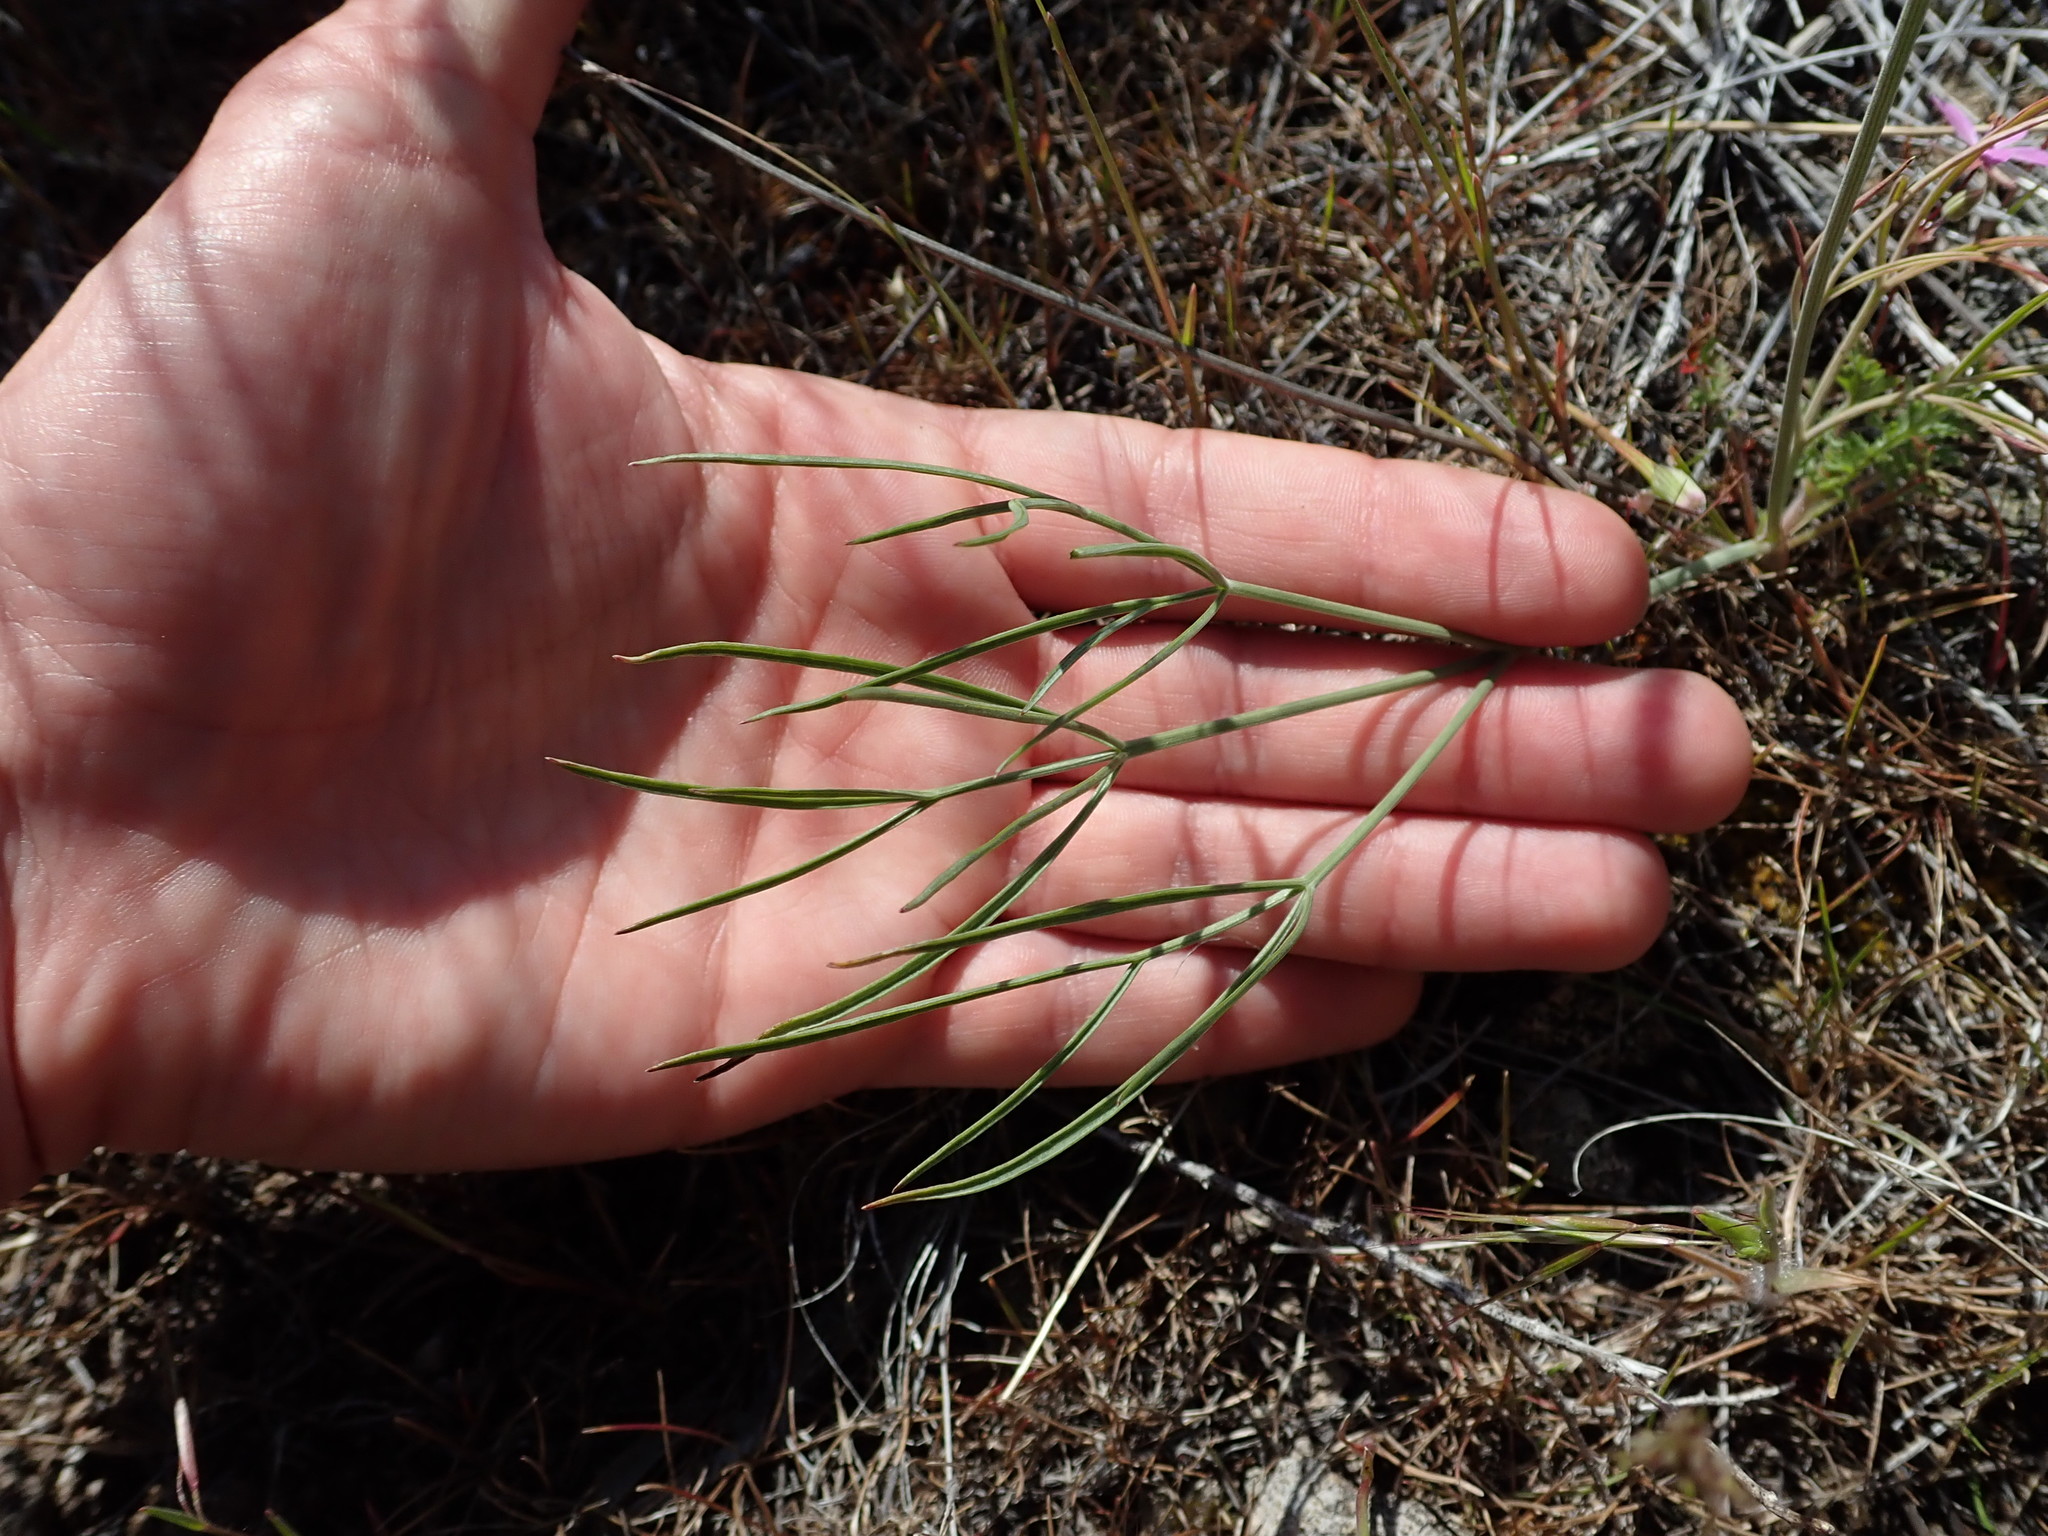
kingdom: Plantae
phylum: Tracheophyta
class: Magnoliopsida
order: Apiales
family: Apiaceae
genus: Lomatium
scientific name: Lomatium triternatum
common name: Ternate lomatium
